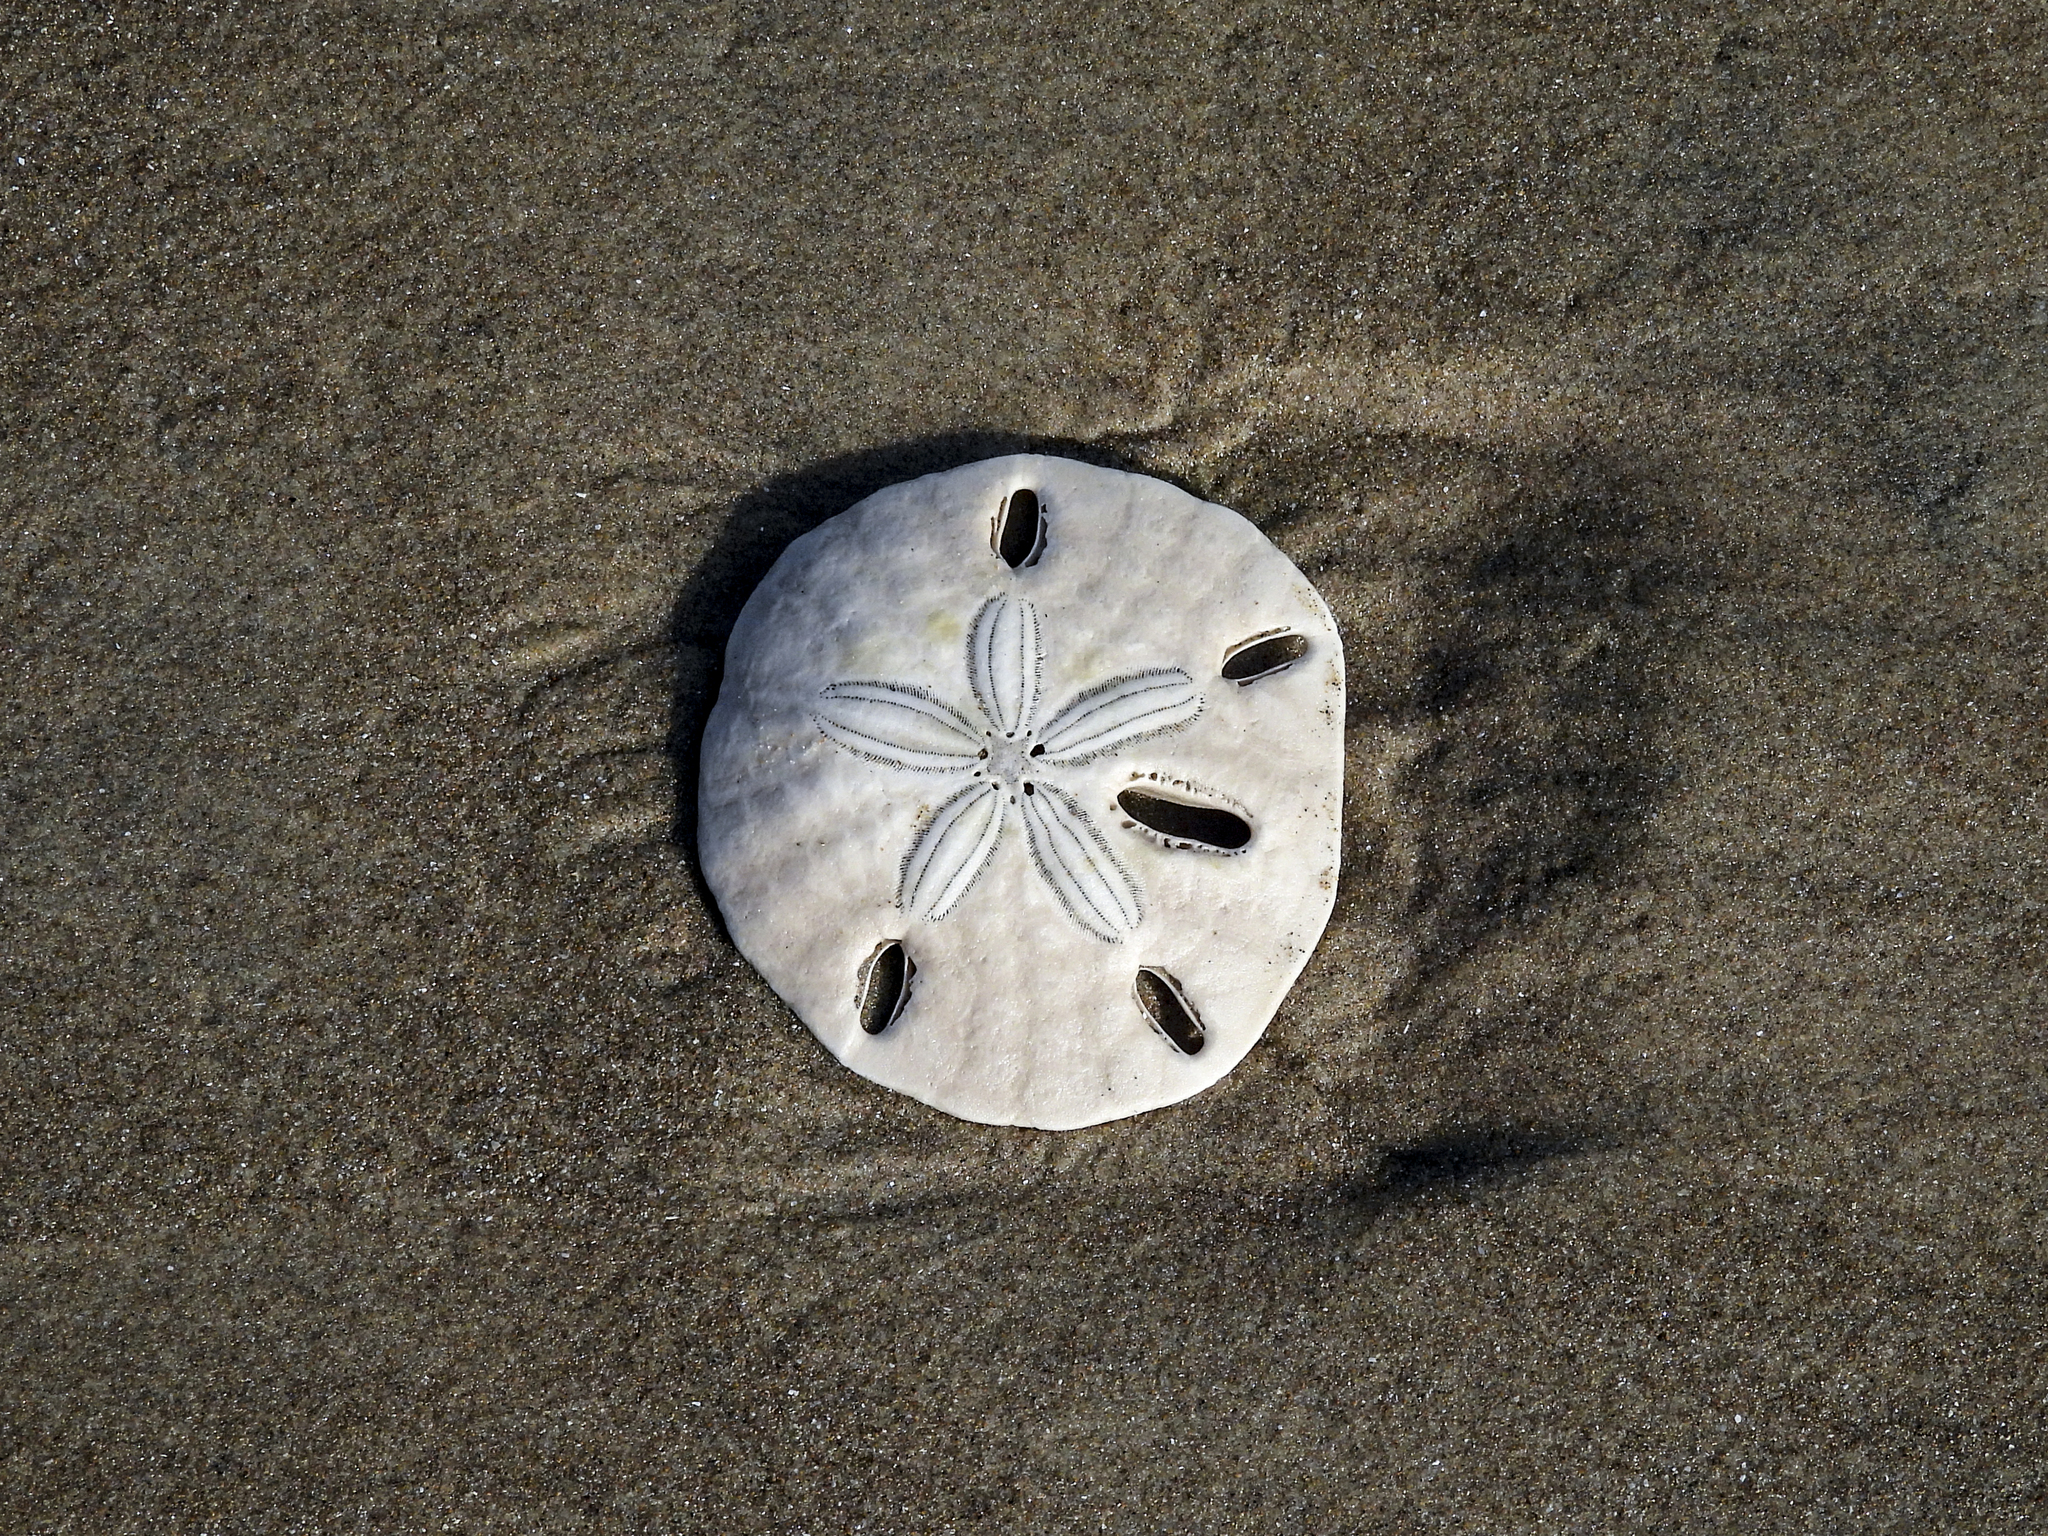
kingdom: Animalia
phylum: Echinodermata
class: Echinoidea
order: Echinolampadacea
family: Mellitidae
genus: Mellita
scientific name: Mellita quinquiesperforata
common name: Sand dollar
